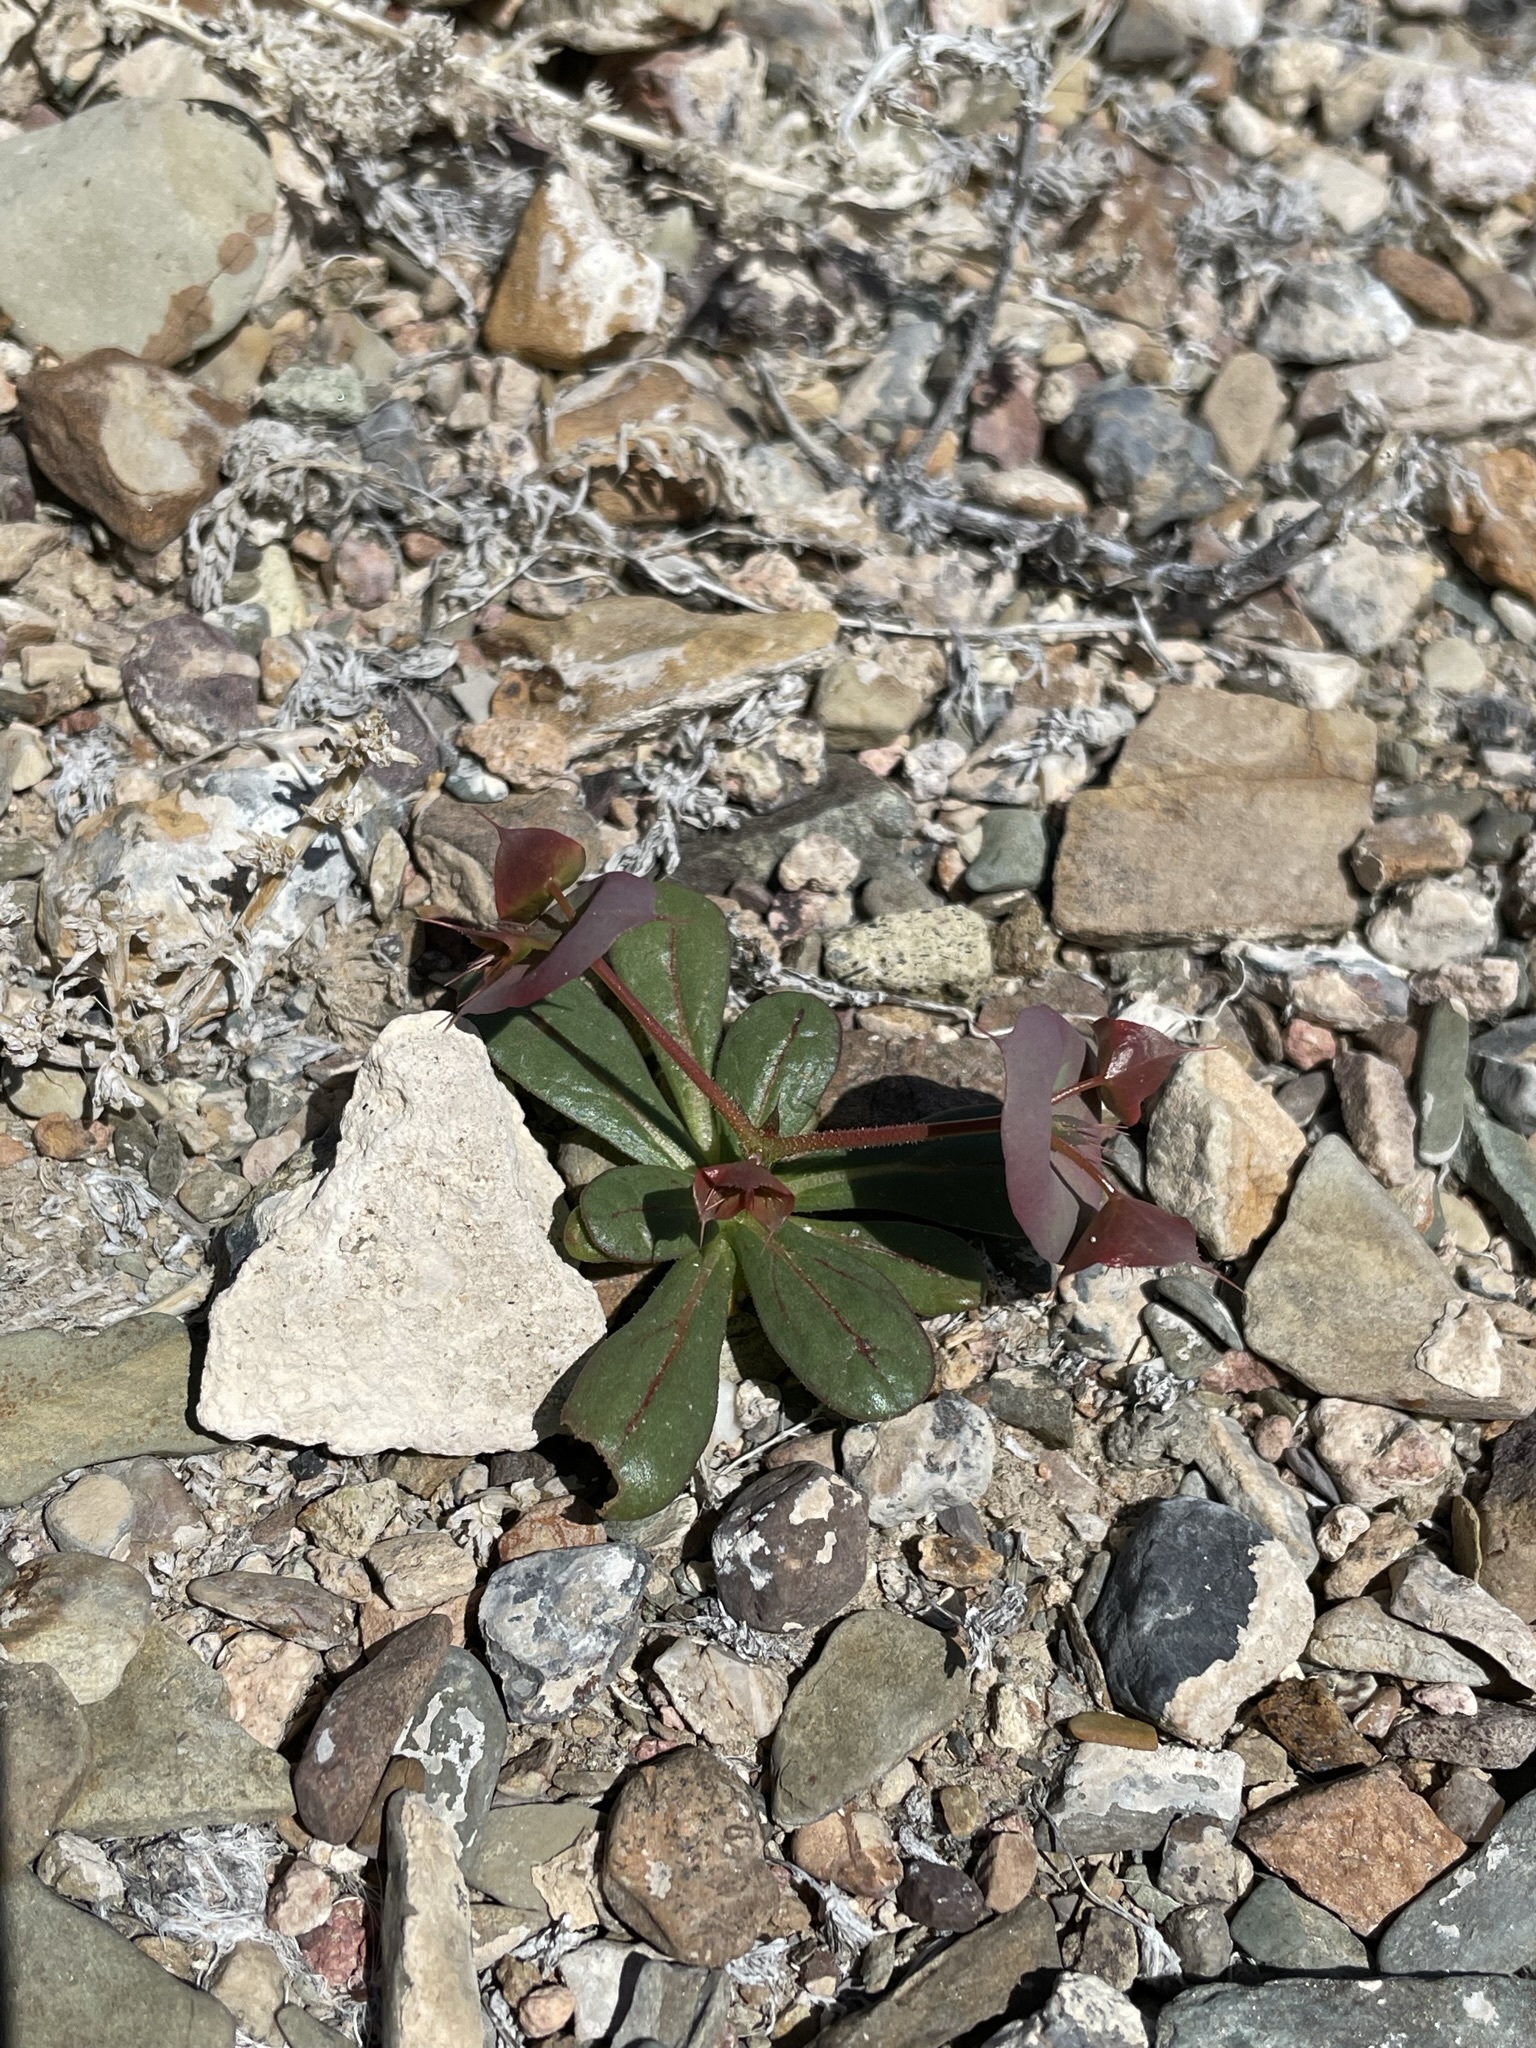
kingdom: Plantae
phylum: Tracheophyta
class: Magnoliopsida
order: Caryophyllales
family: Polygonaceae
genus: Oxytheca
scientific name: Oxytheca perfoliata
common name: Round-leaf puncturebract
